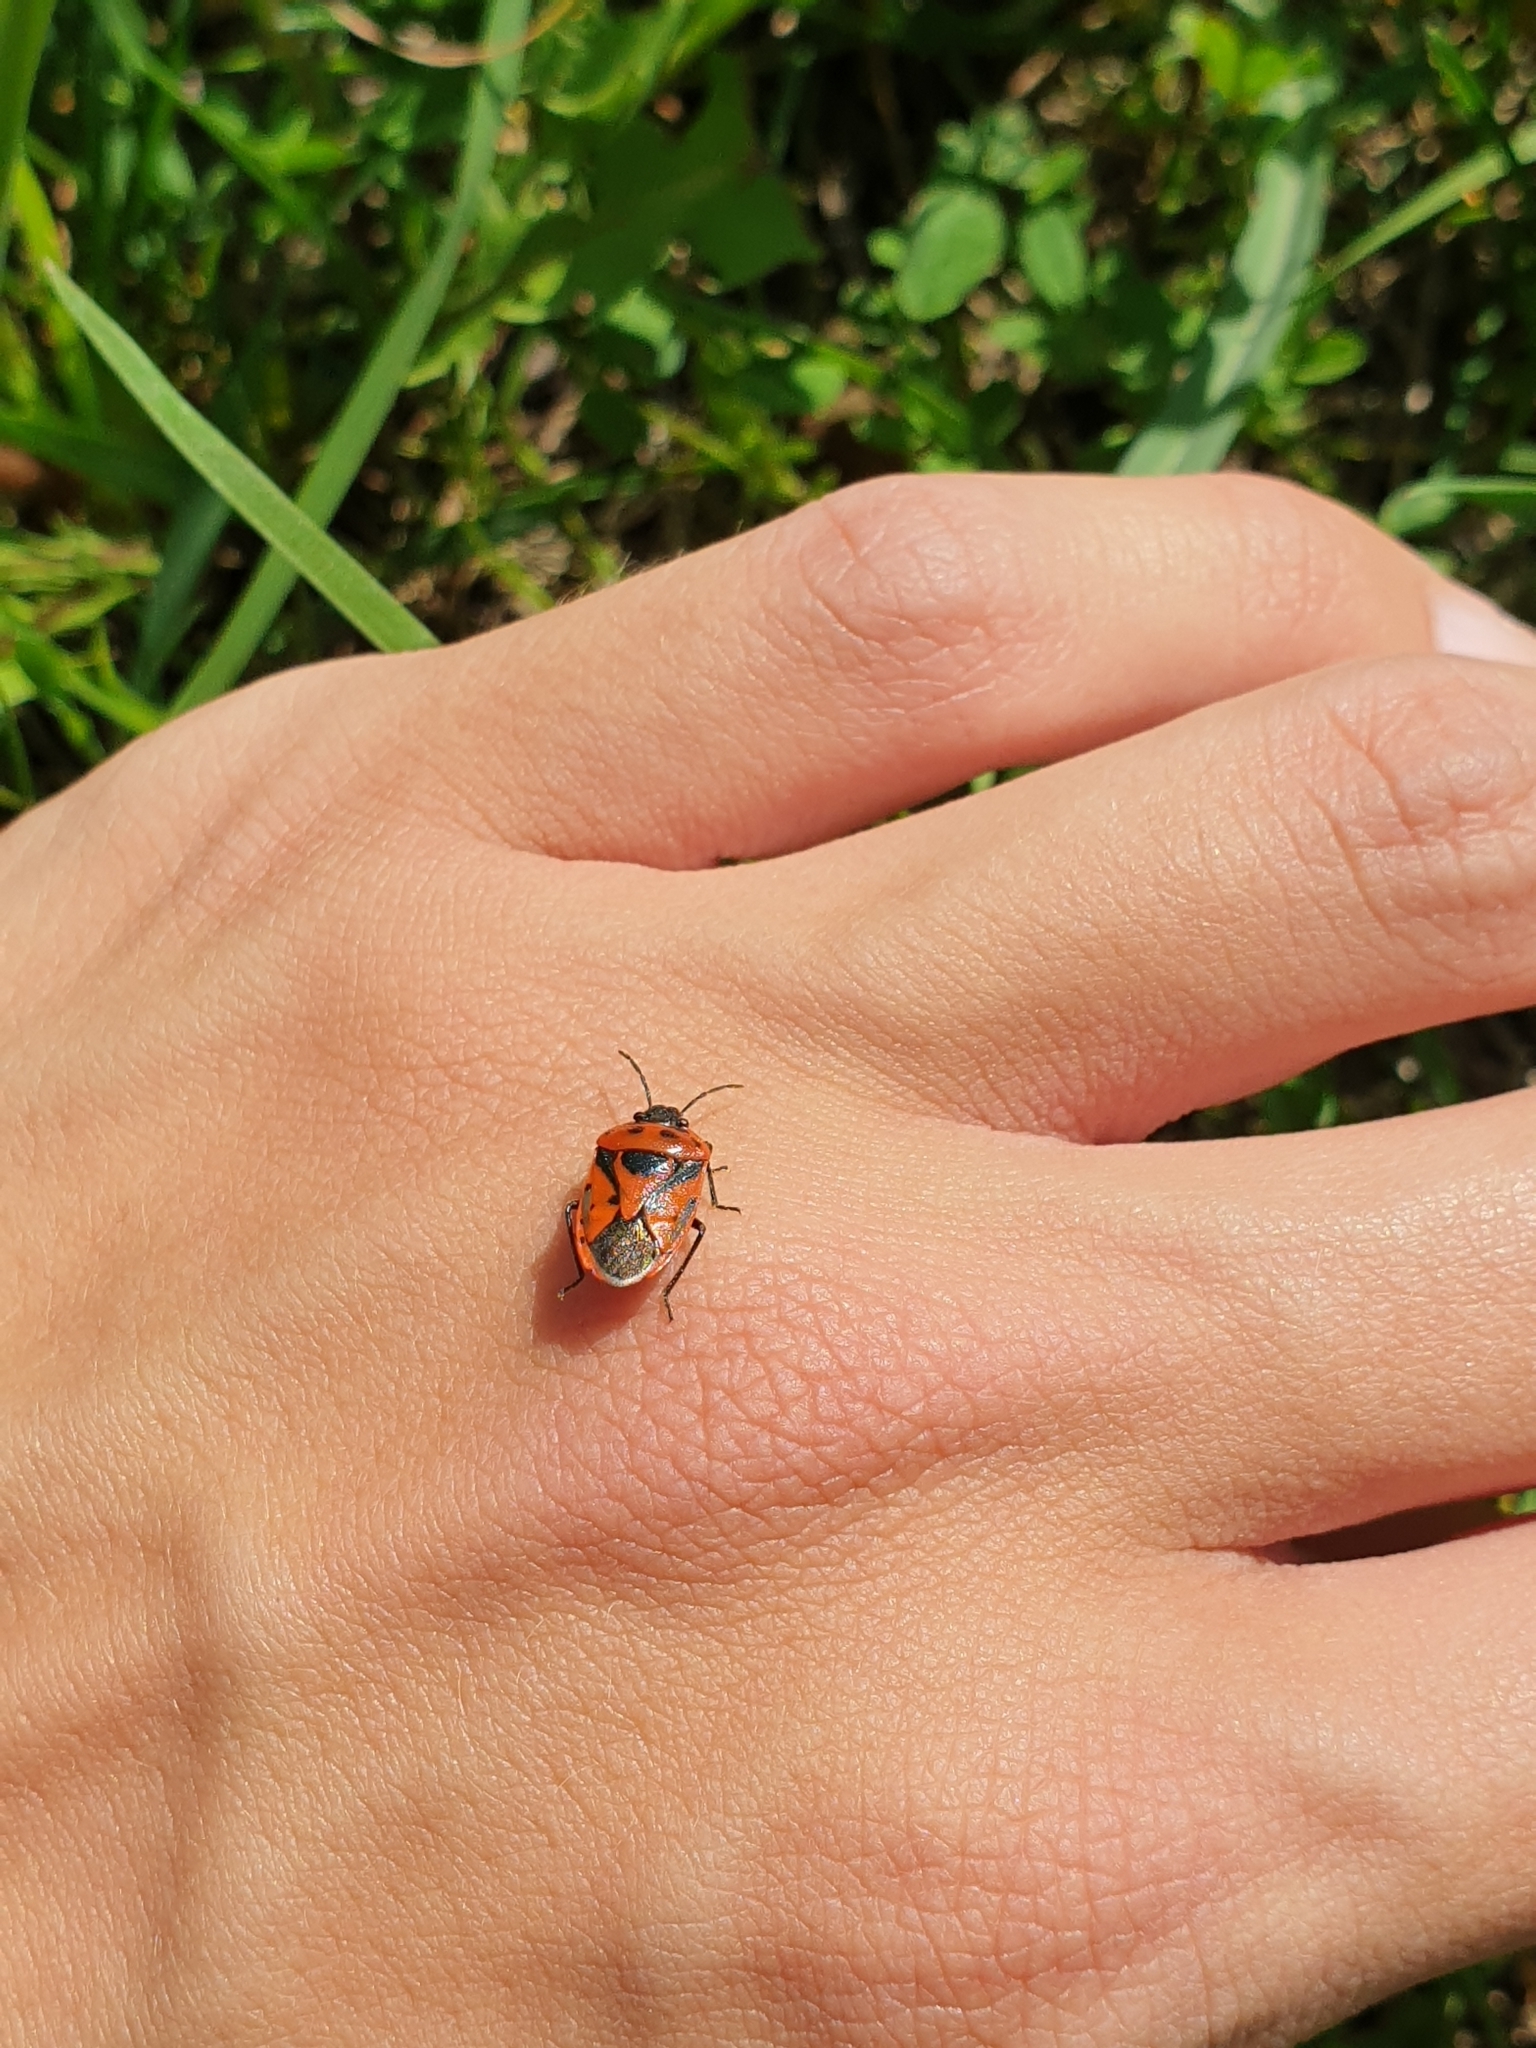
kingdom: Animalia
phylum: Arthropoda
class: Insecta
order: Hemiptera
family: Pentatomidae
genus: Eurydema
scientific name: Eurydema ornata
